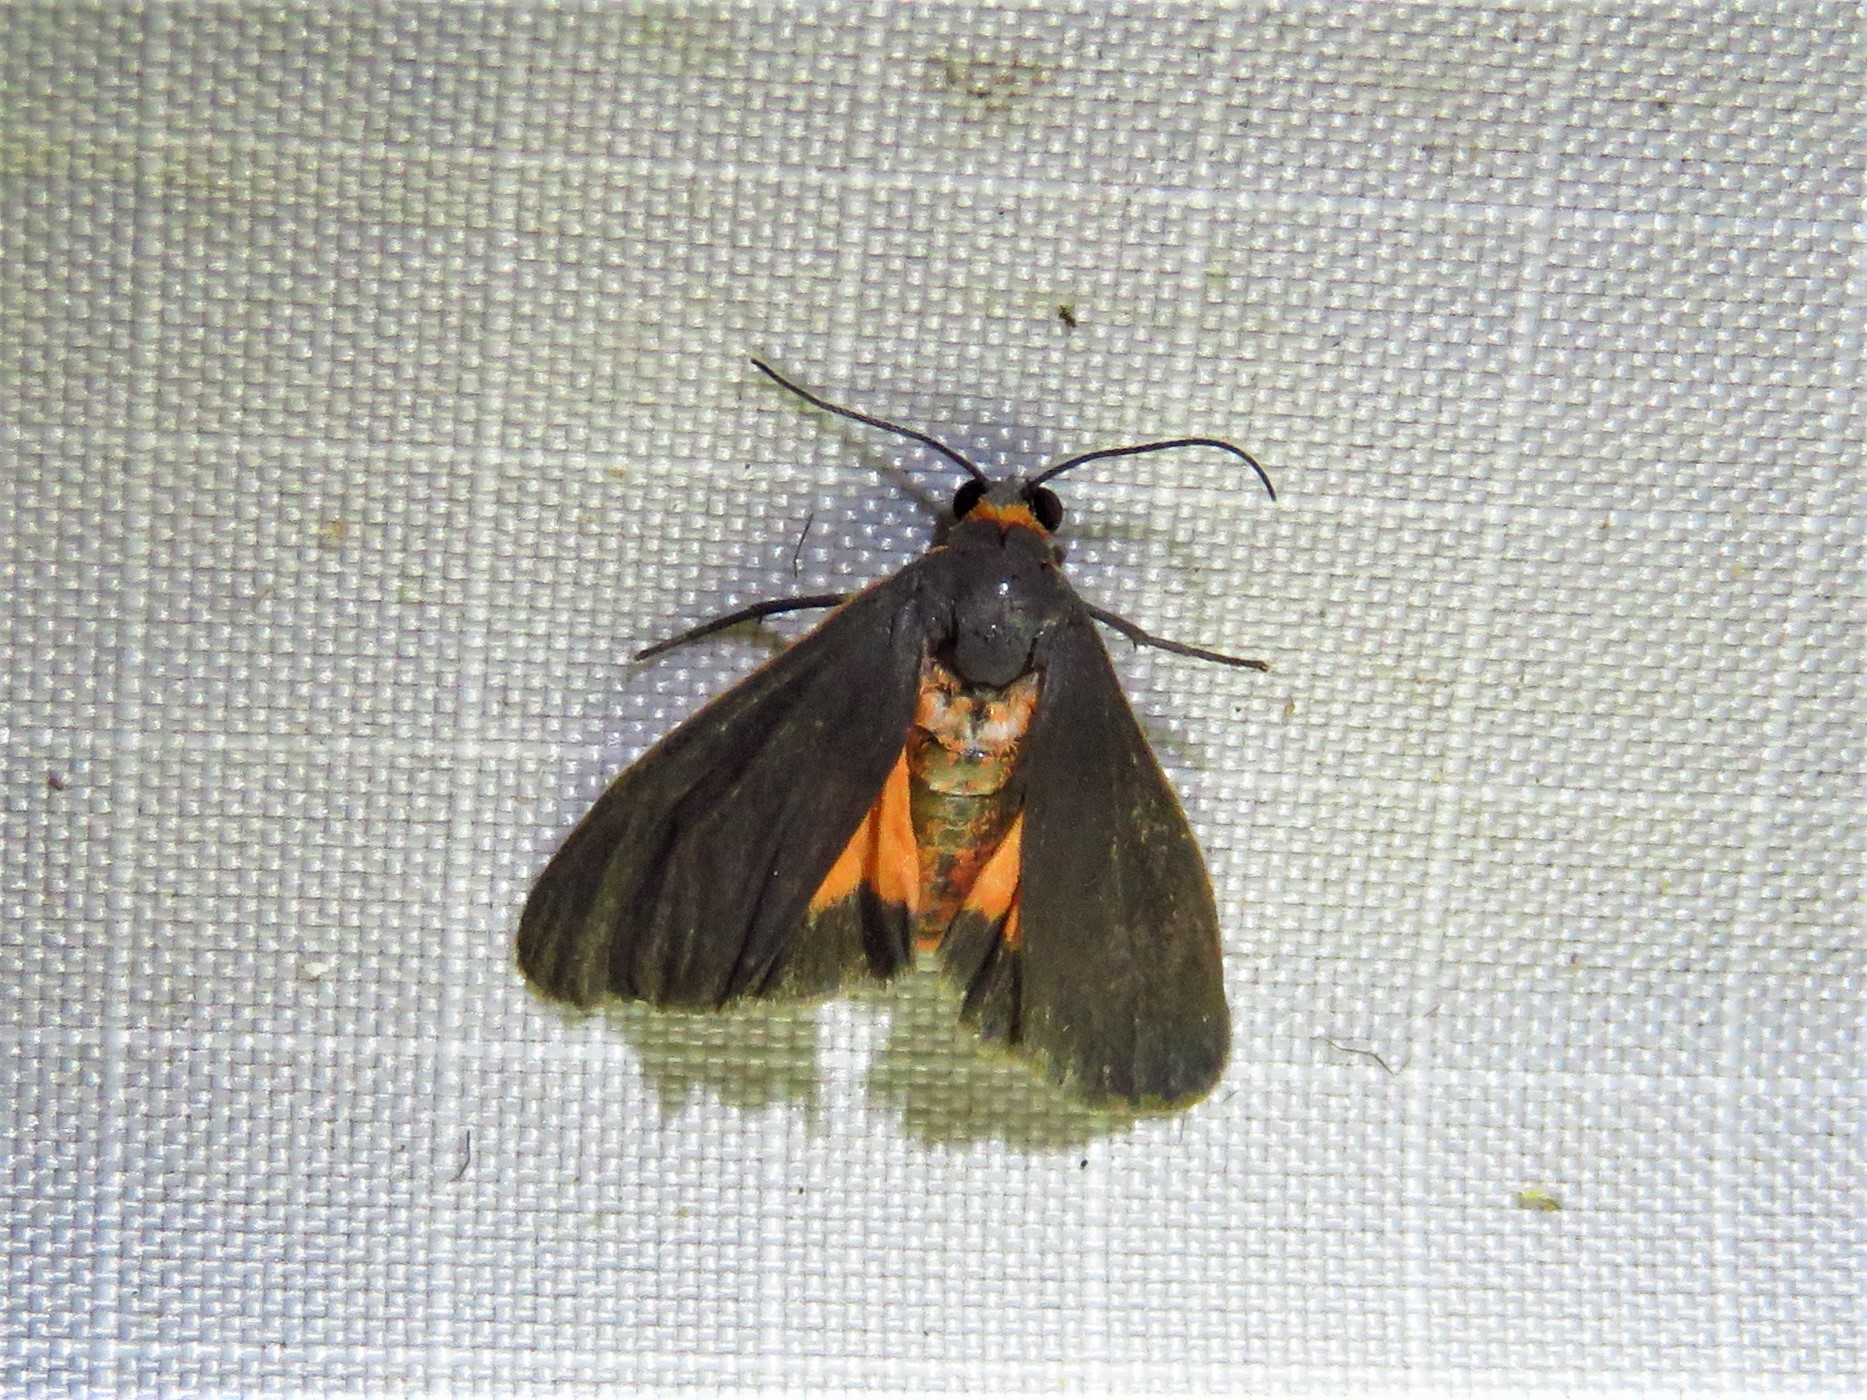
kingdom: Animalia
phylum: Arthropoda
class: Insecta
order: Lepidoptera
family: Erebidae
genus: Virbia
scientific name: Virbia laeta
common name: Joyful holomelina moth
